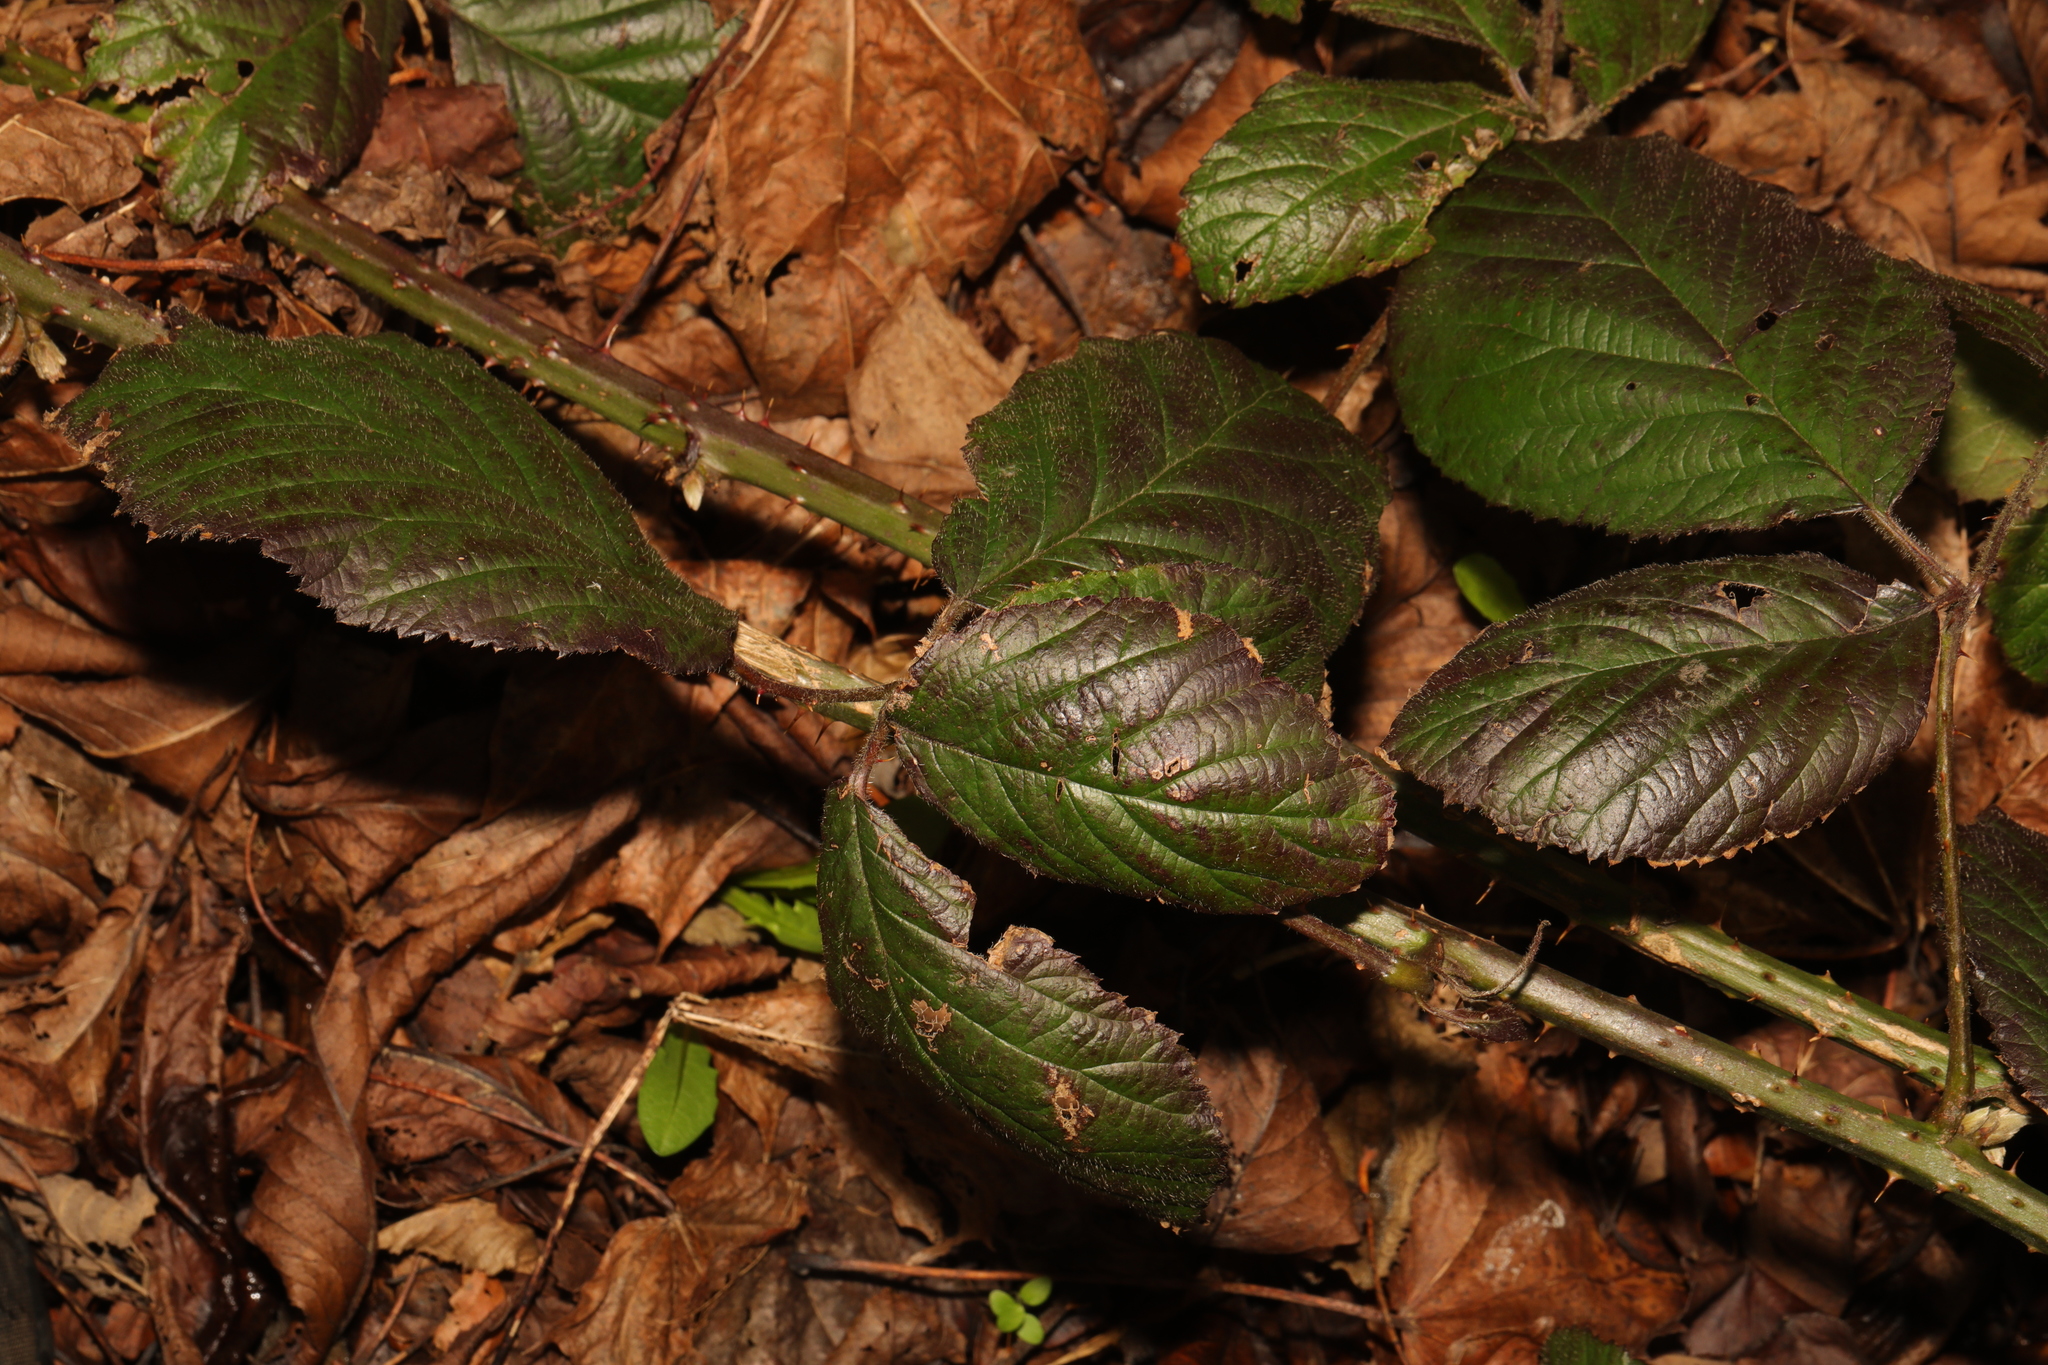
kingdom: Plantae
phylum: Tracheophyta
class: Magnoliopsida
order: Rosales
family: Rosaceae
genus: Rubus
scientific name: Rubus fruticosus
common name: Blackberry, bramble
